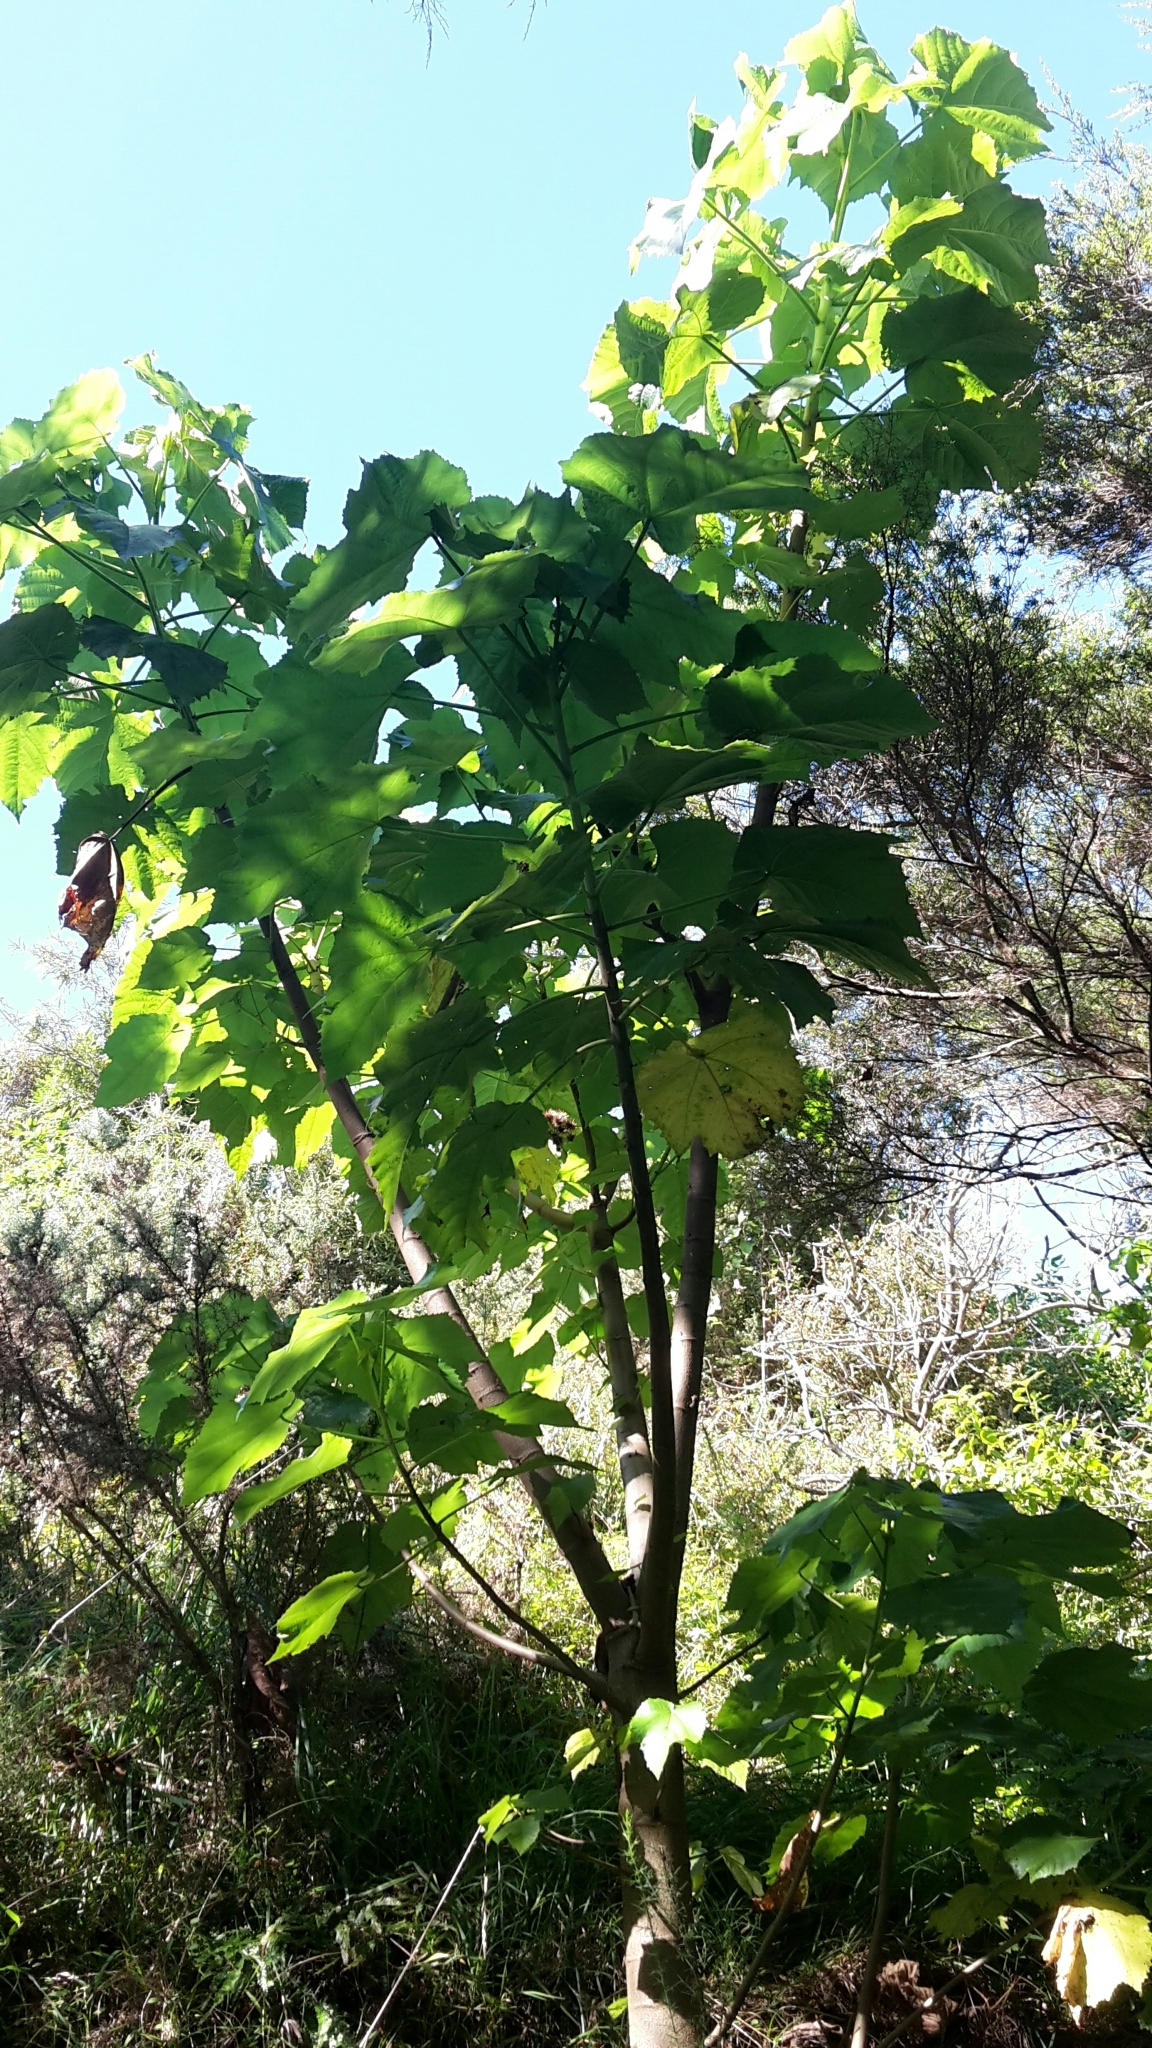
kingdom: Plantae
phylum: Tracheophyta
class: Magnoliopsida
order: Malvales
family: Malvaceae
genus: Entelea
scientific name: Entelea arborescens
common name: New zealand-mulberry
